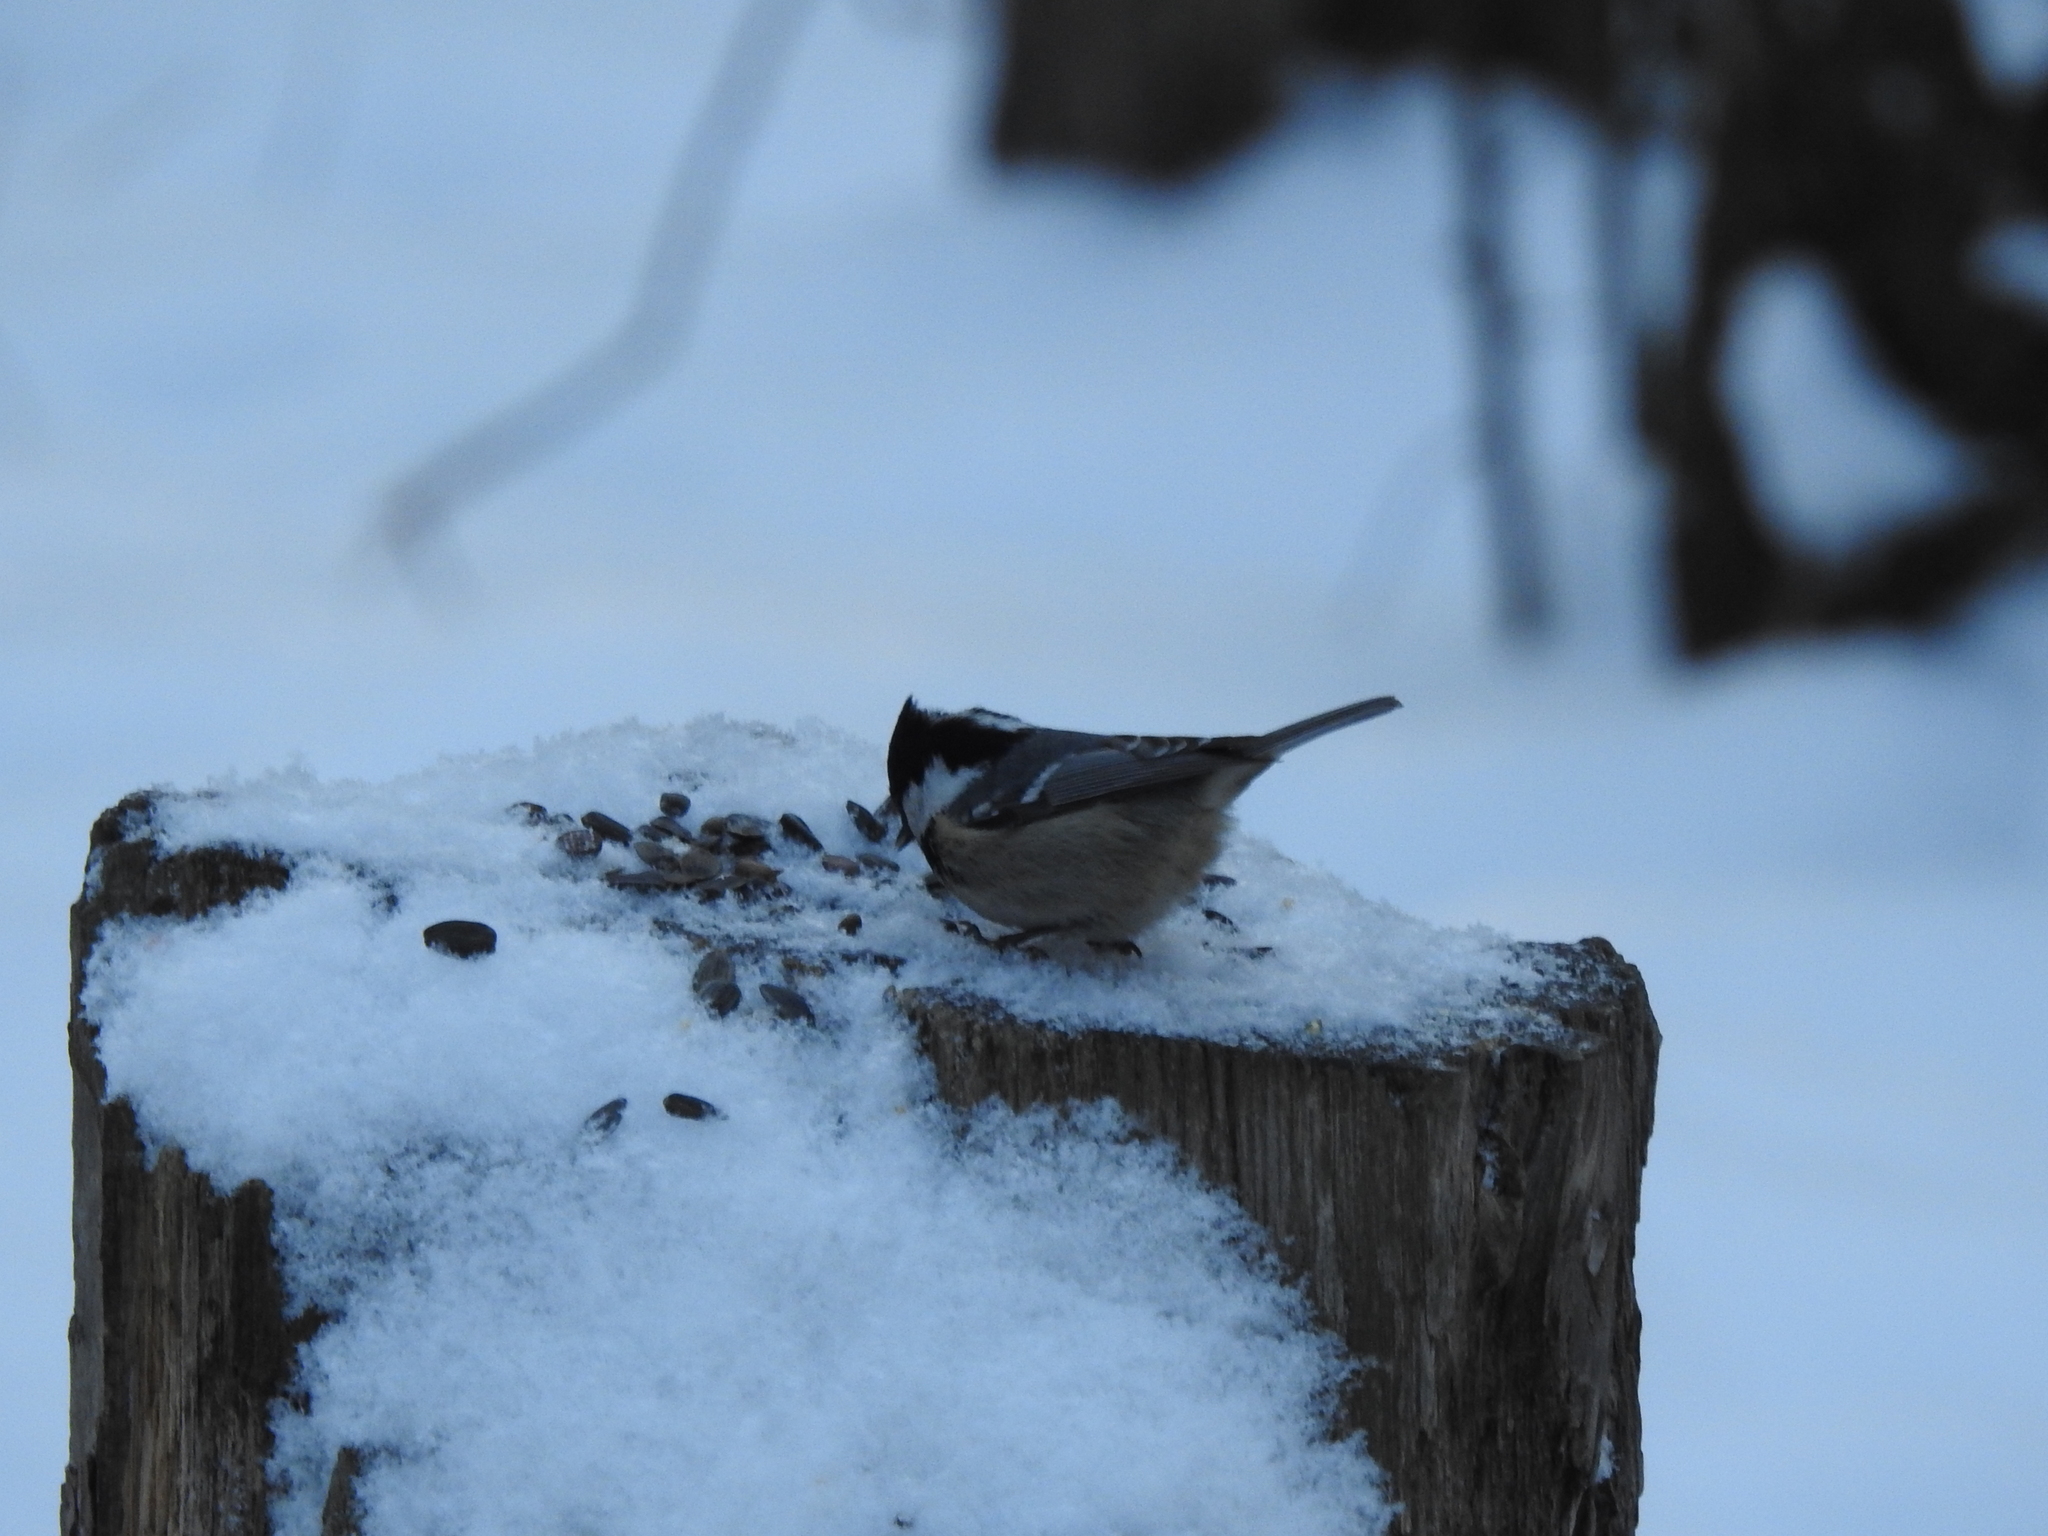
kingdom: Animalia
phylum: Chordata
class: Aves
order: Passeriformes
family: Paridae
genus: Periparus
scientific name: Periparus ater
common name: Coal tit
